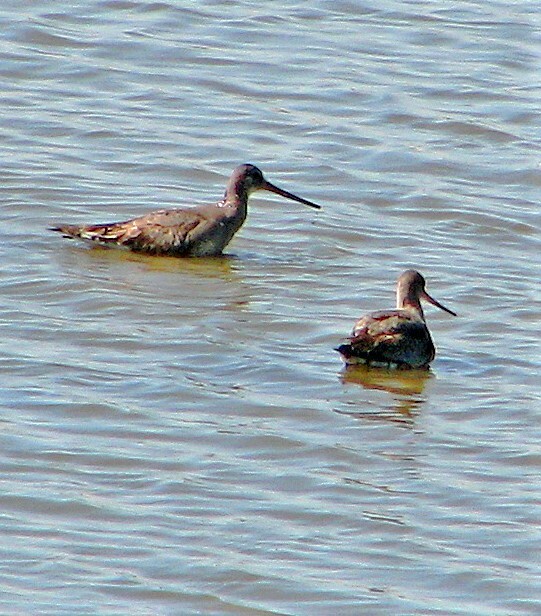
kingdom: Animalia
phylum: Chordata
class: Aves
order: Charadriiformes
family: Scolopacidae
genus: Limosa
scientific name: Limosa haemastica
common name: Hudsonian godwit
